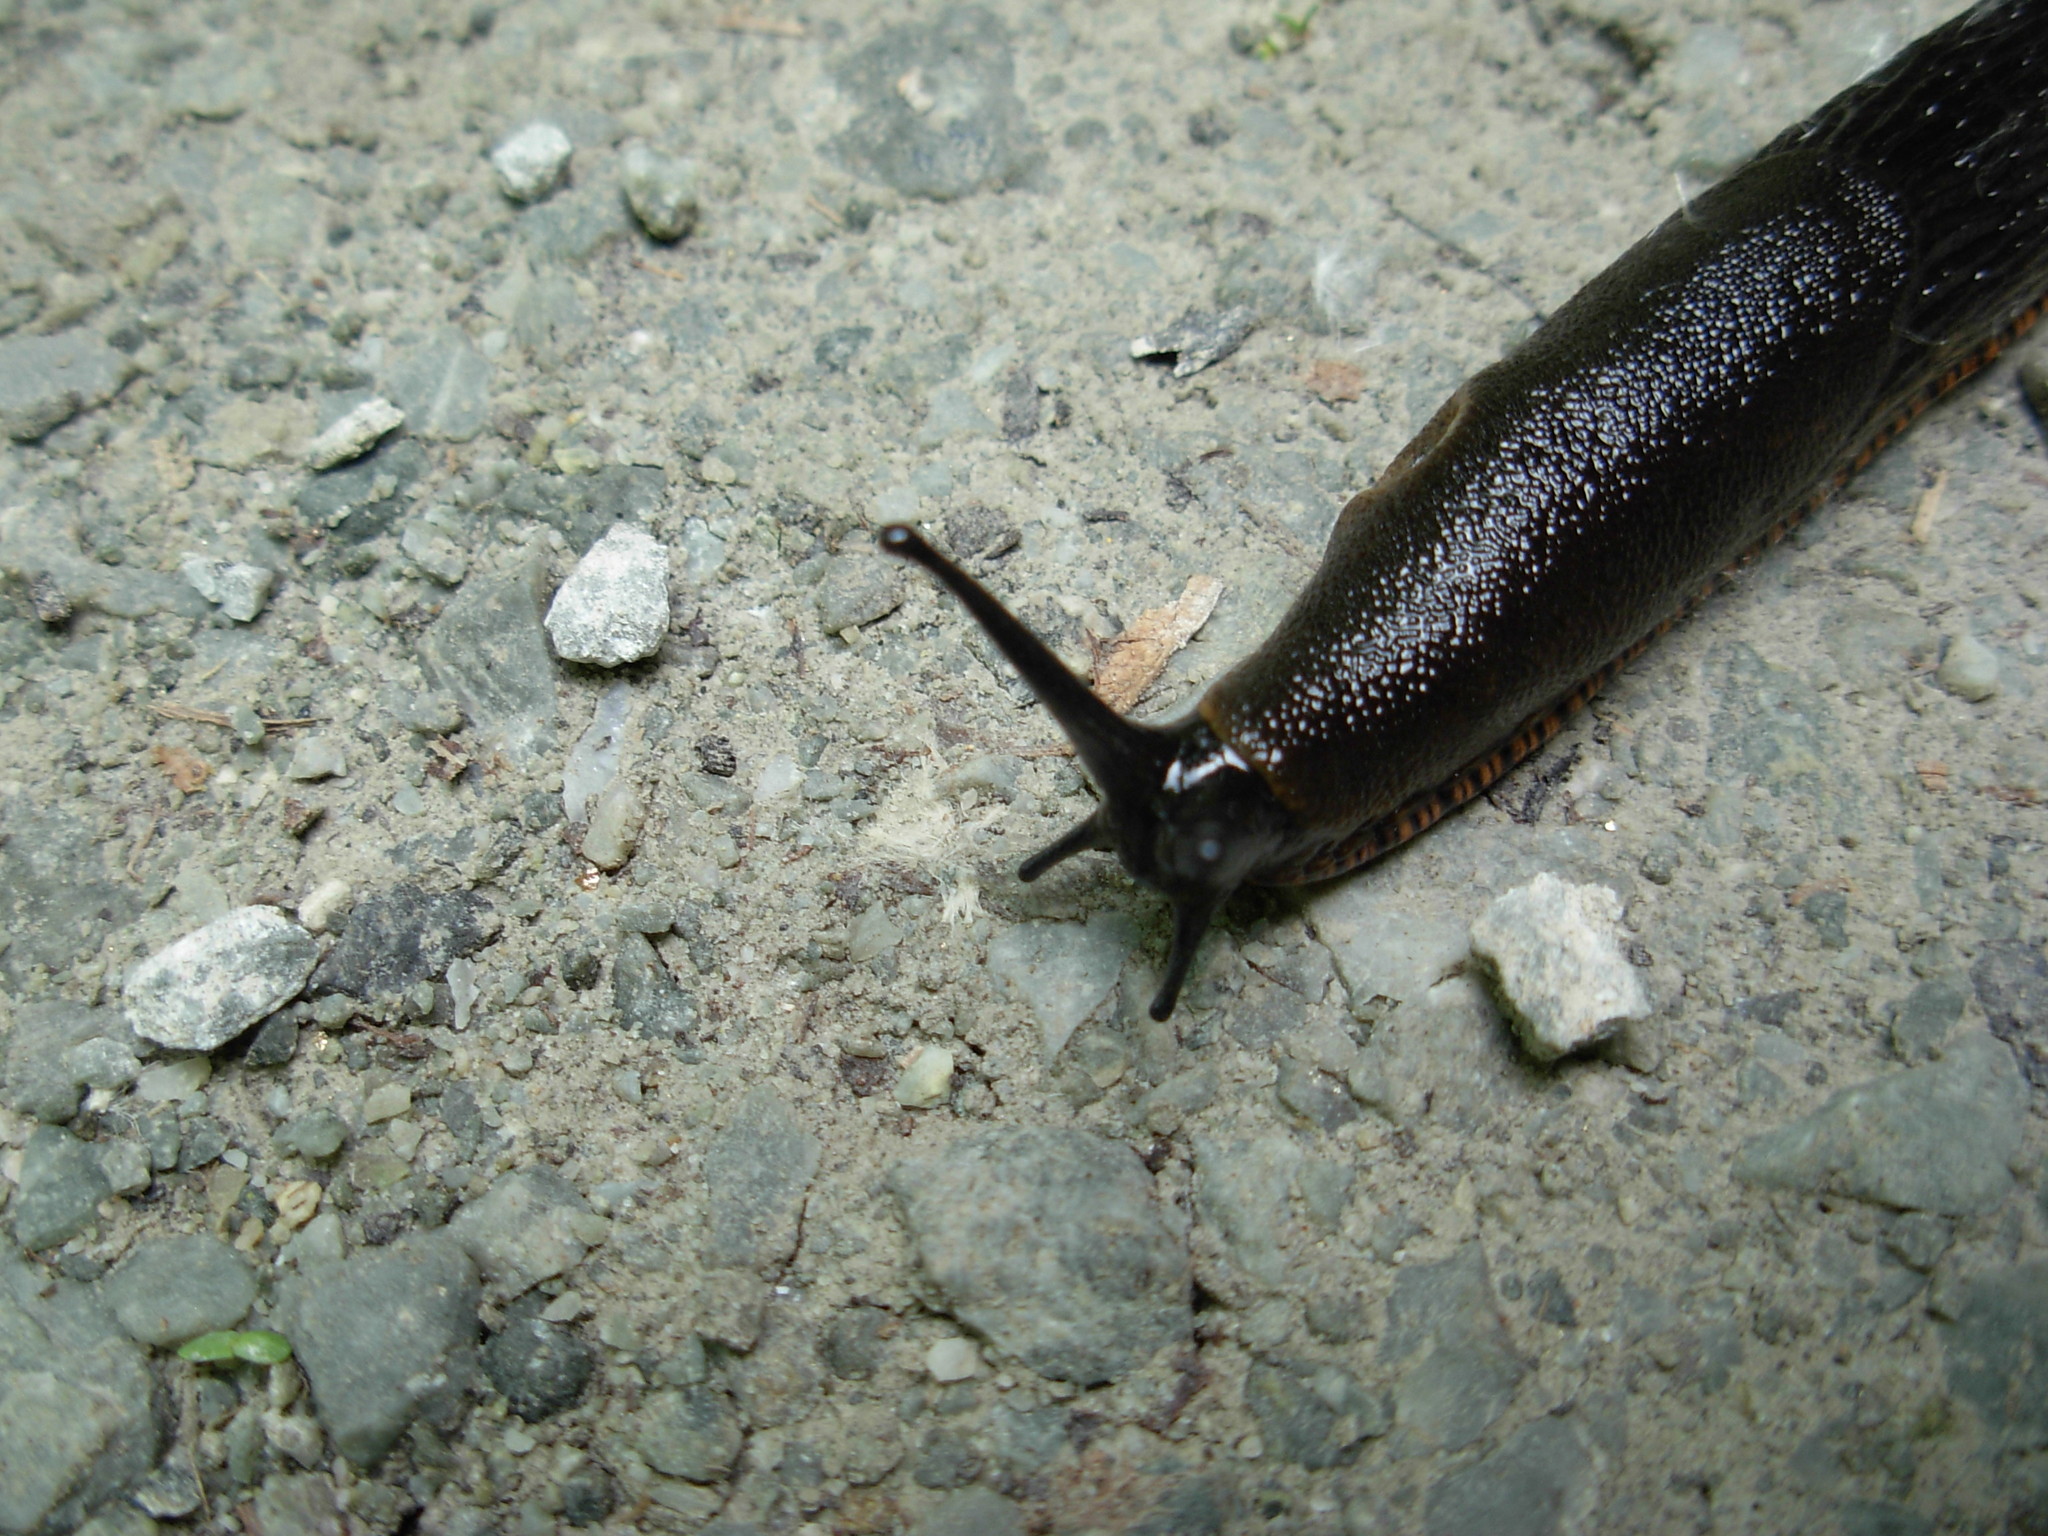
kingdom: Animalia
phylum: Mollusca
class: Gastropoda
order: Stylommatophora
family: Arionidae
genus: Arion
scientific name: Arion
